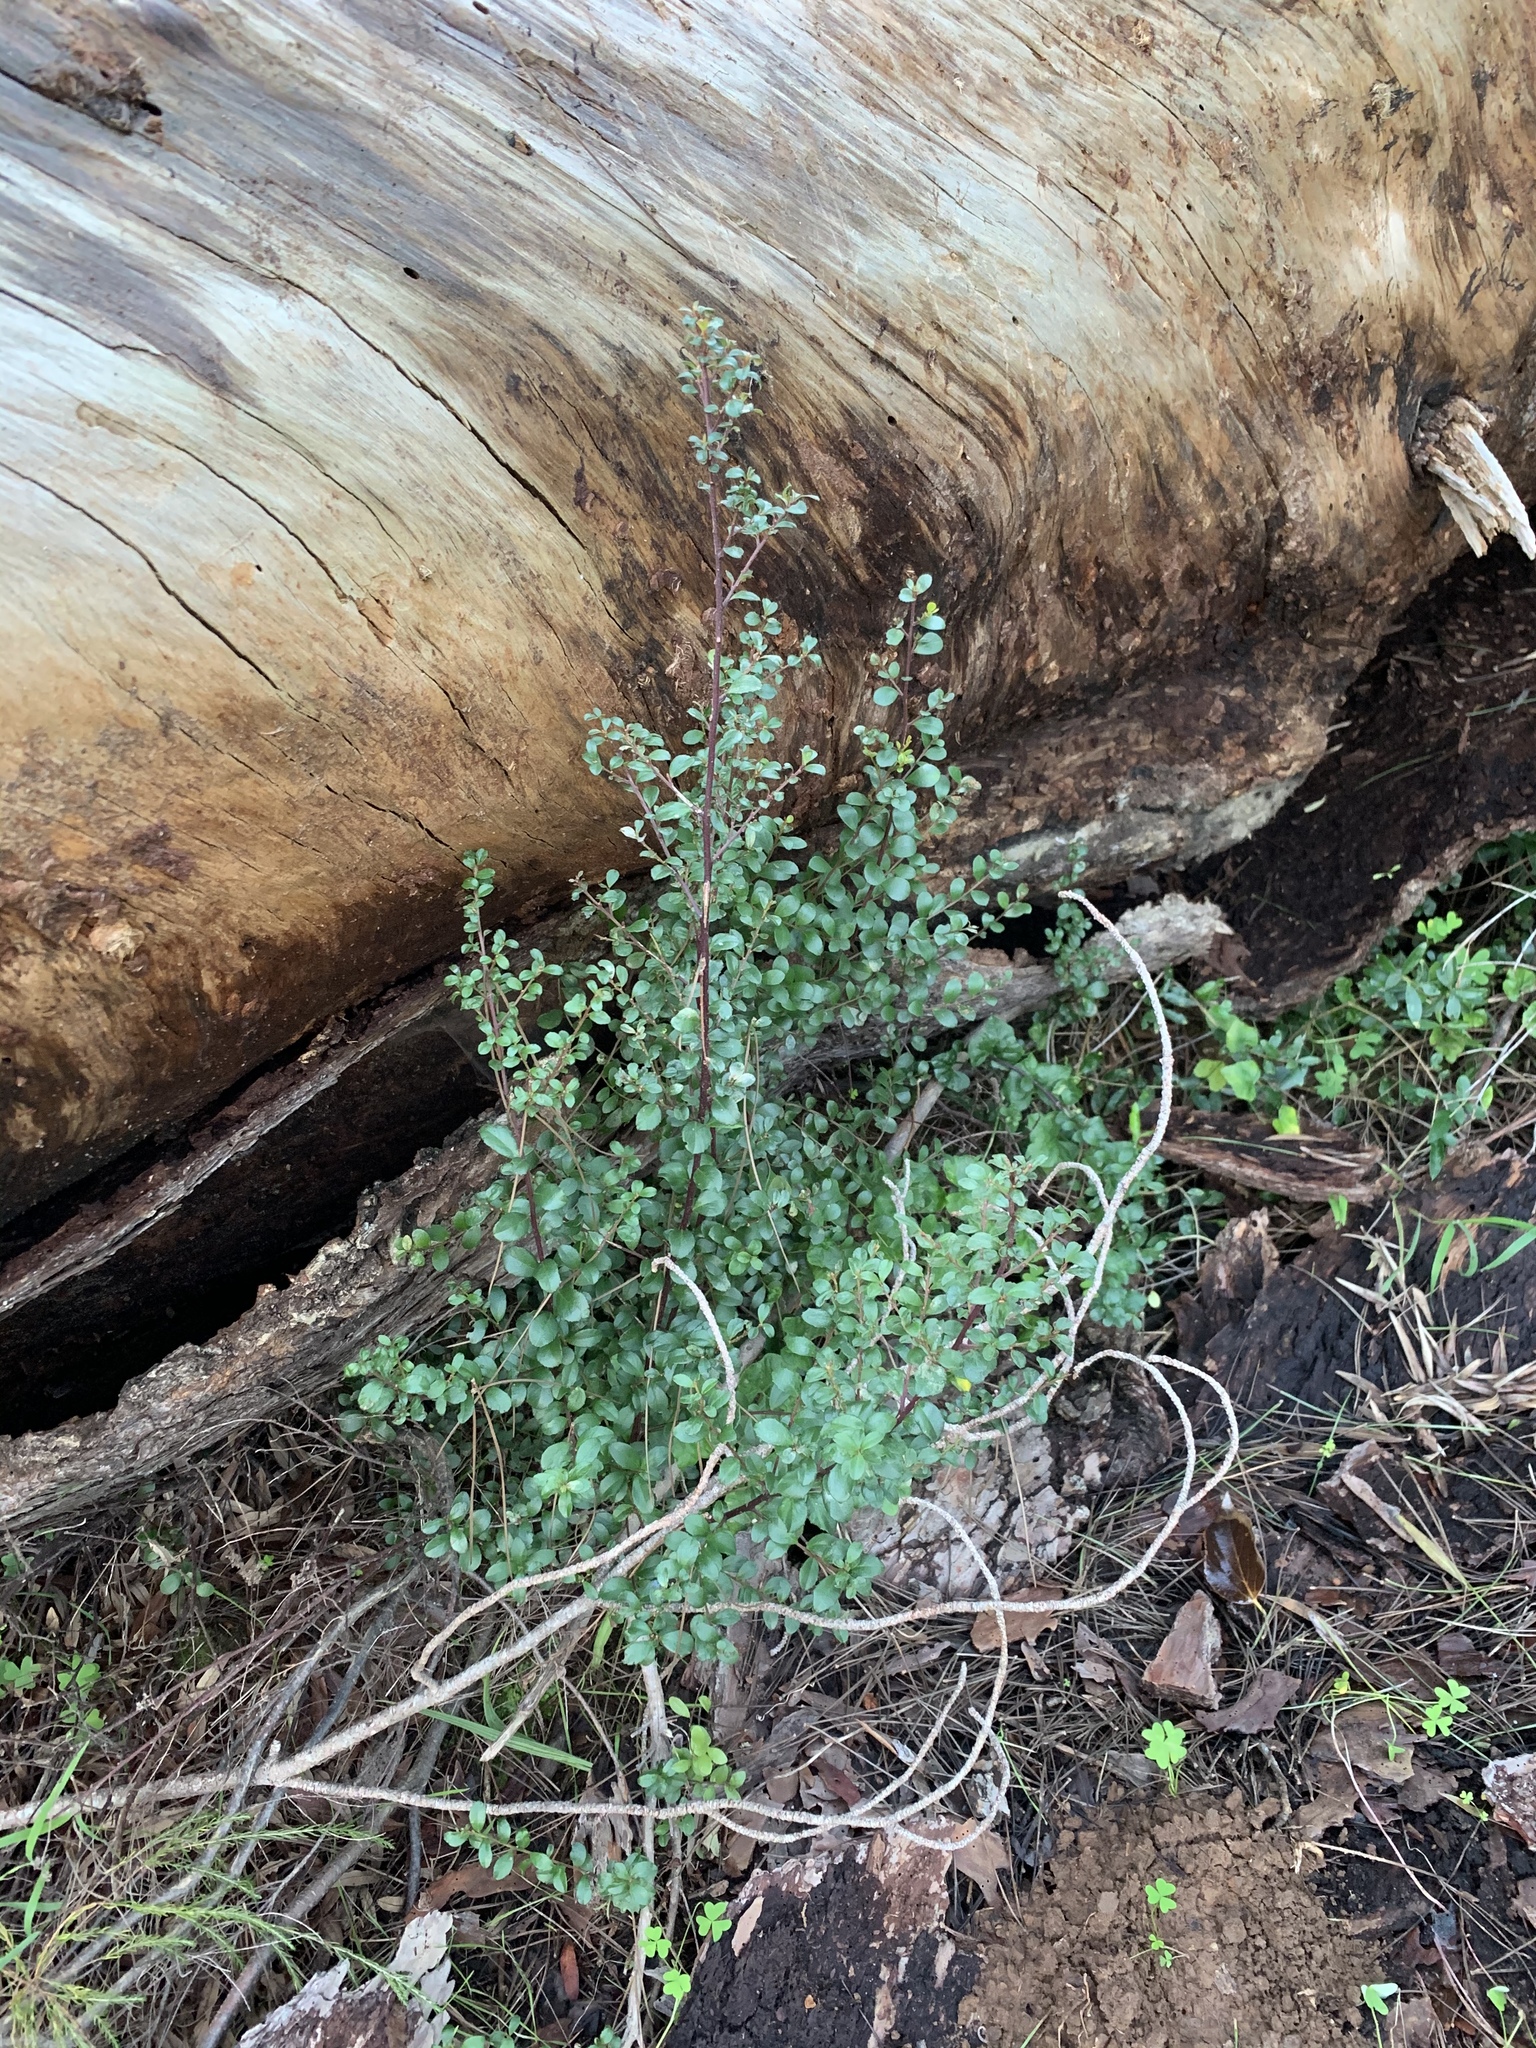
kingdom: Plantae
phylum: Tracheophyta
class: Magnoliopsida
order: Ericales
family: Primulaceae
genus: Myrsine
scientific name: Myrsine africana
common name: African-boxwood
